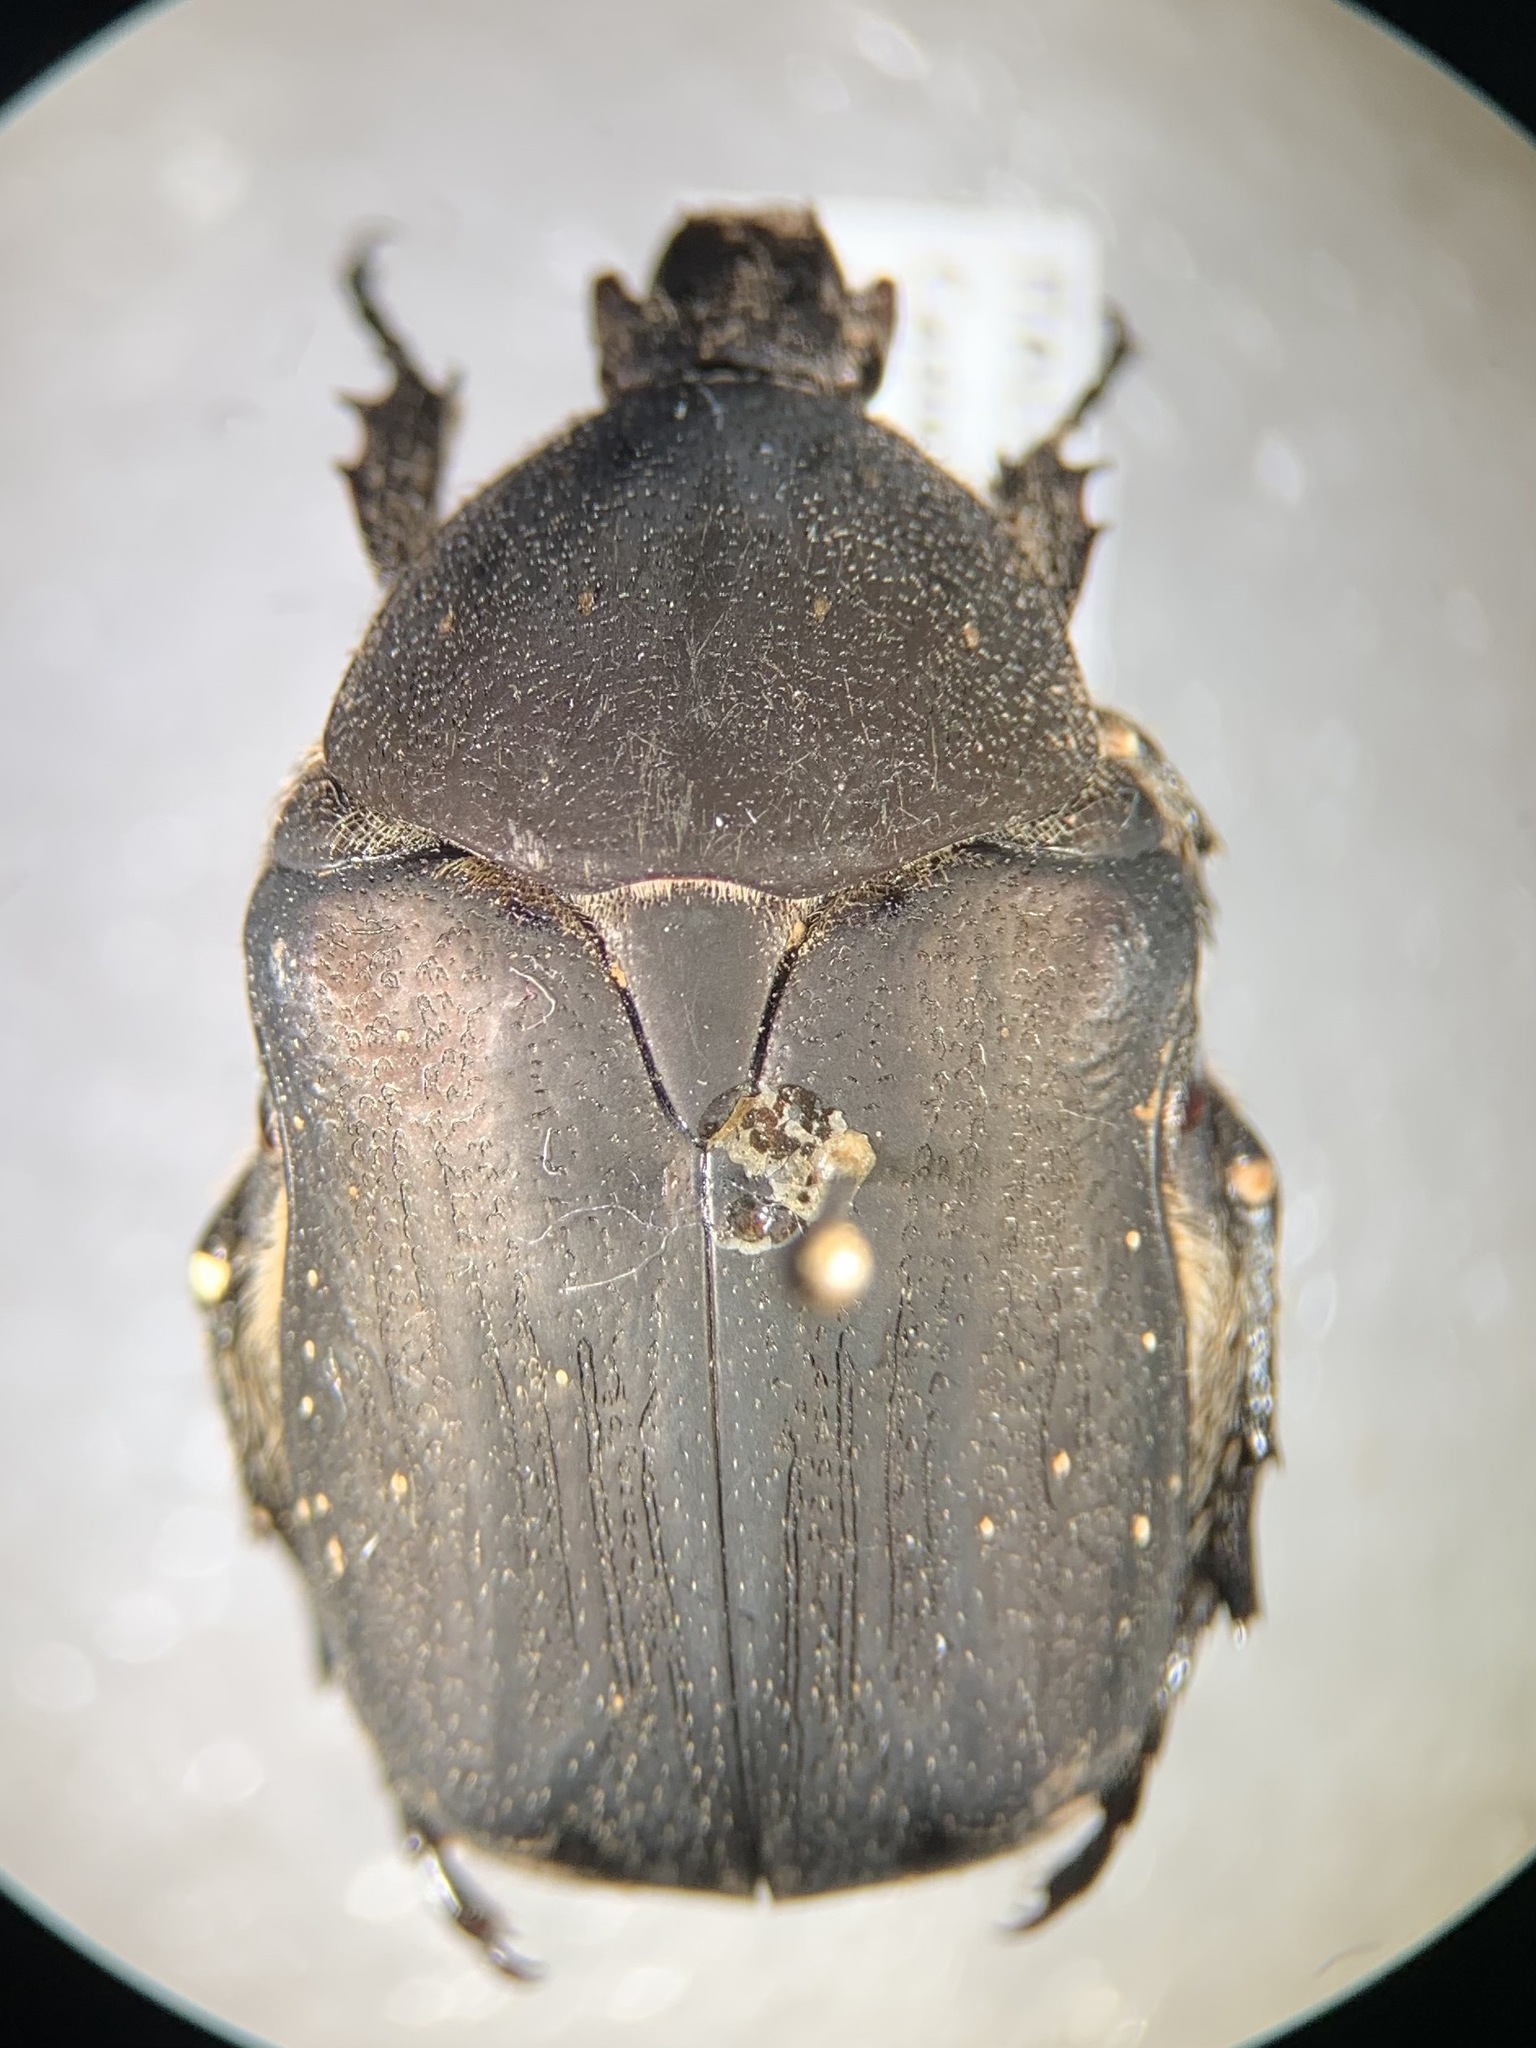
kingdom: Animalia
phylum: Arthropoda
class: Insecta
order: Coleoptera
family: Scarabaeidae
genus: Protaetia
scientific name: Protaetia morio
